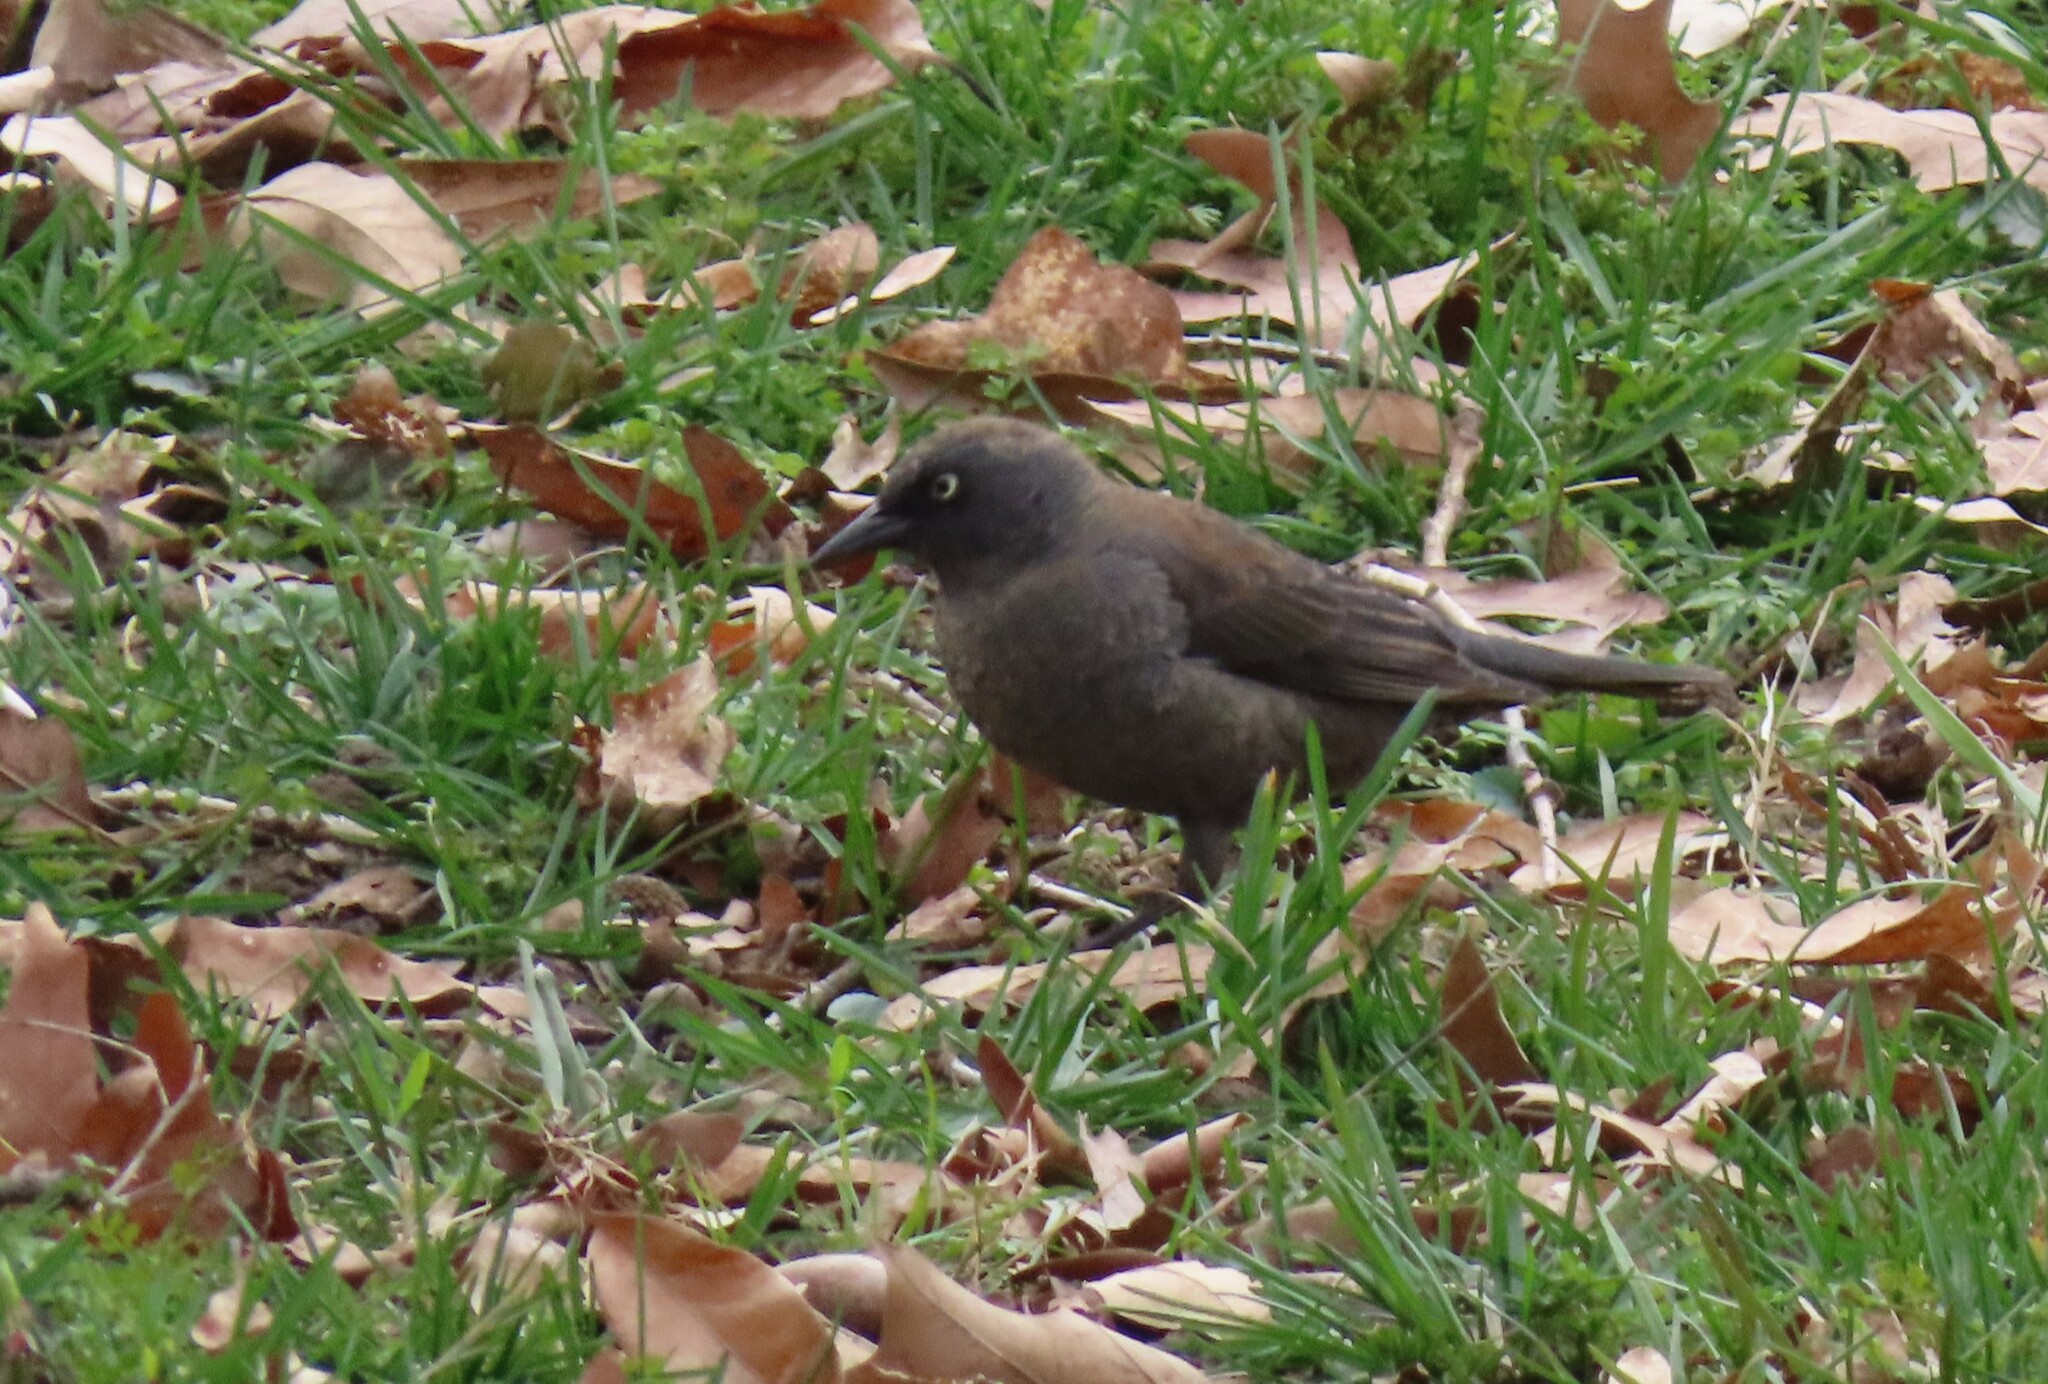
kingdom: Animalia
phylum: Chordata
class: Aves
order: Passeriformes
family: Icteridae
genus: Euphagus
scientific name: Euphagus carolinus
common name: Rusty blackbird
